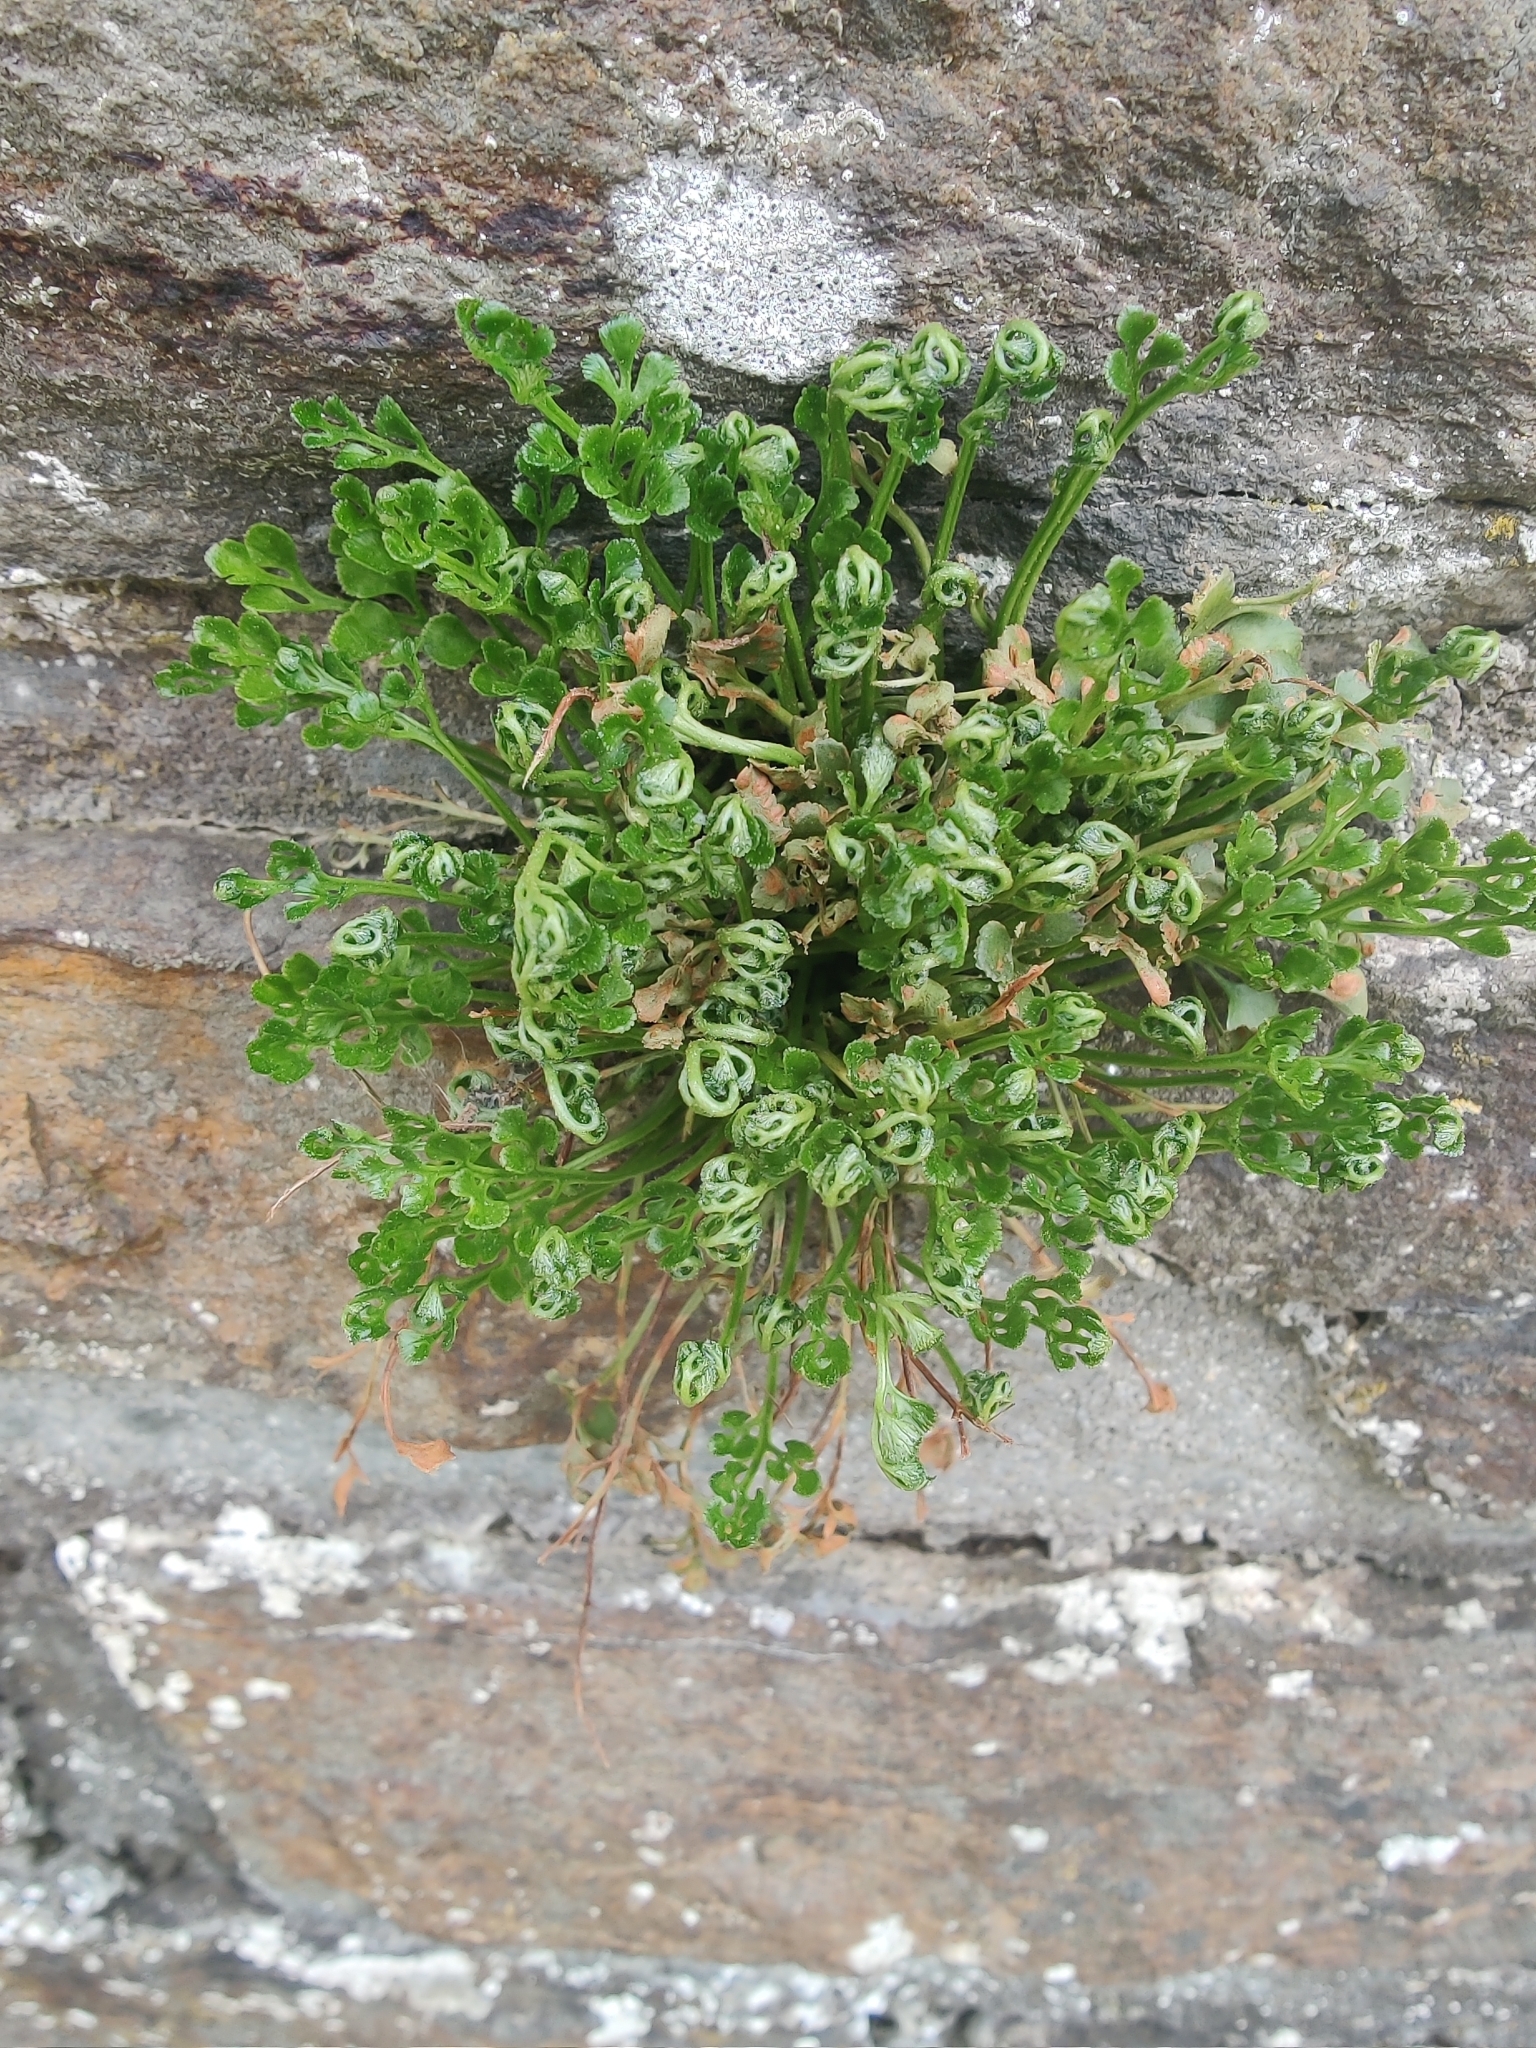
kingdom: Plantae
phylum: Tracheophyta
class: Polypodiopsida
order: Polypodiales
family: Aspleniaceae
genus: Asplenium
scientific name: Asplenium ruta-muraria
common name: Wall-rue
